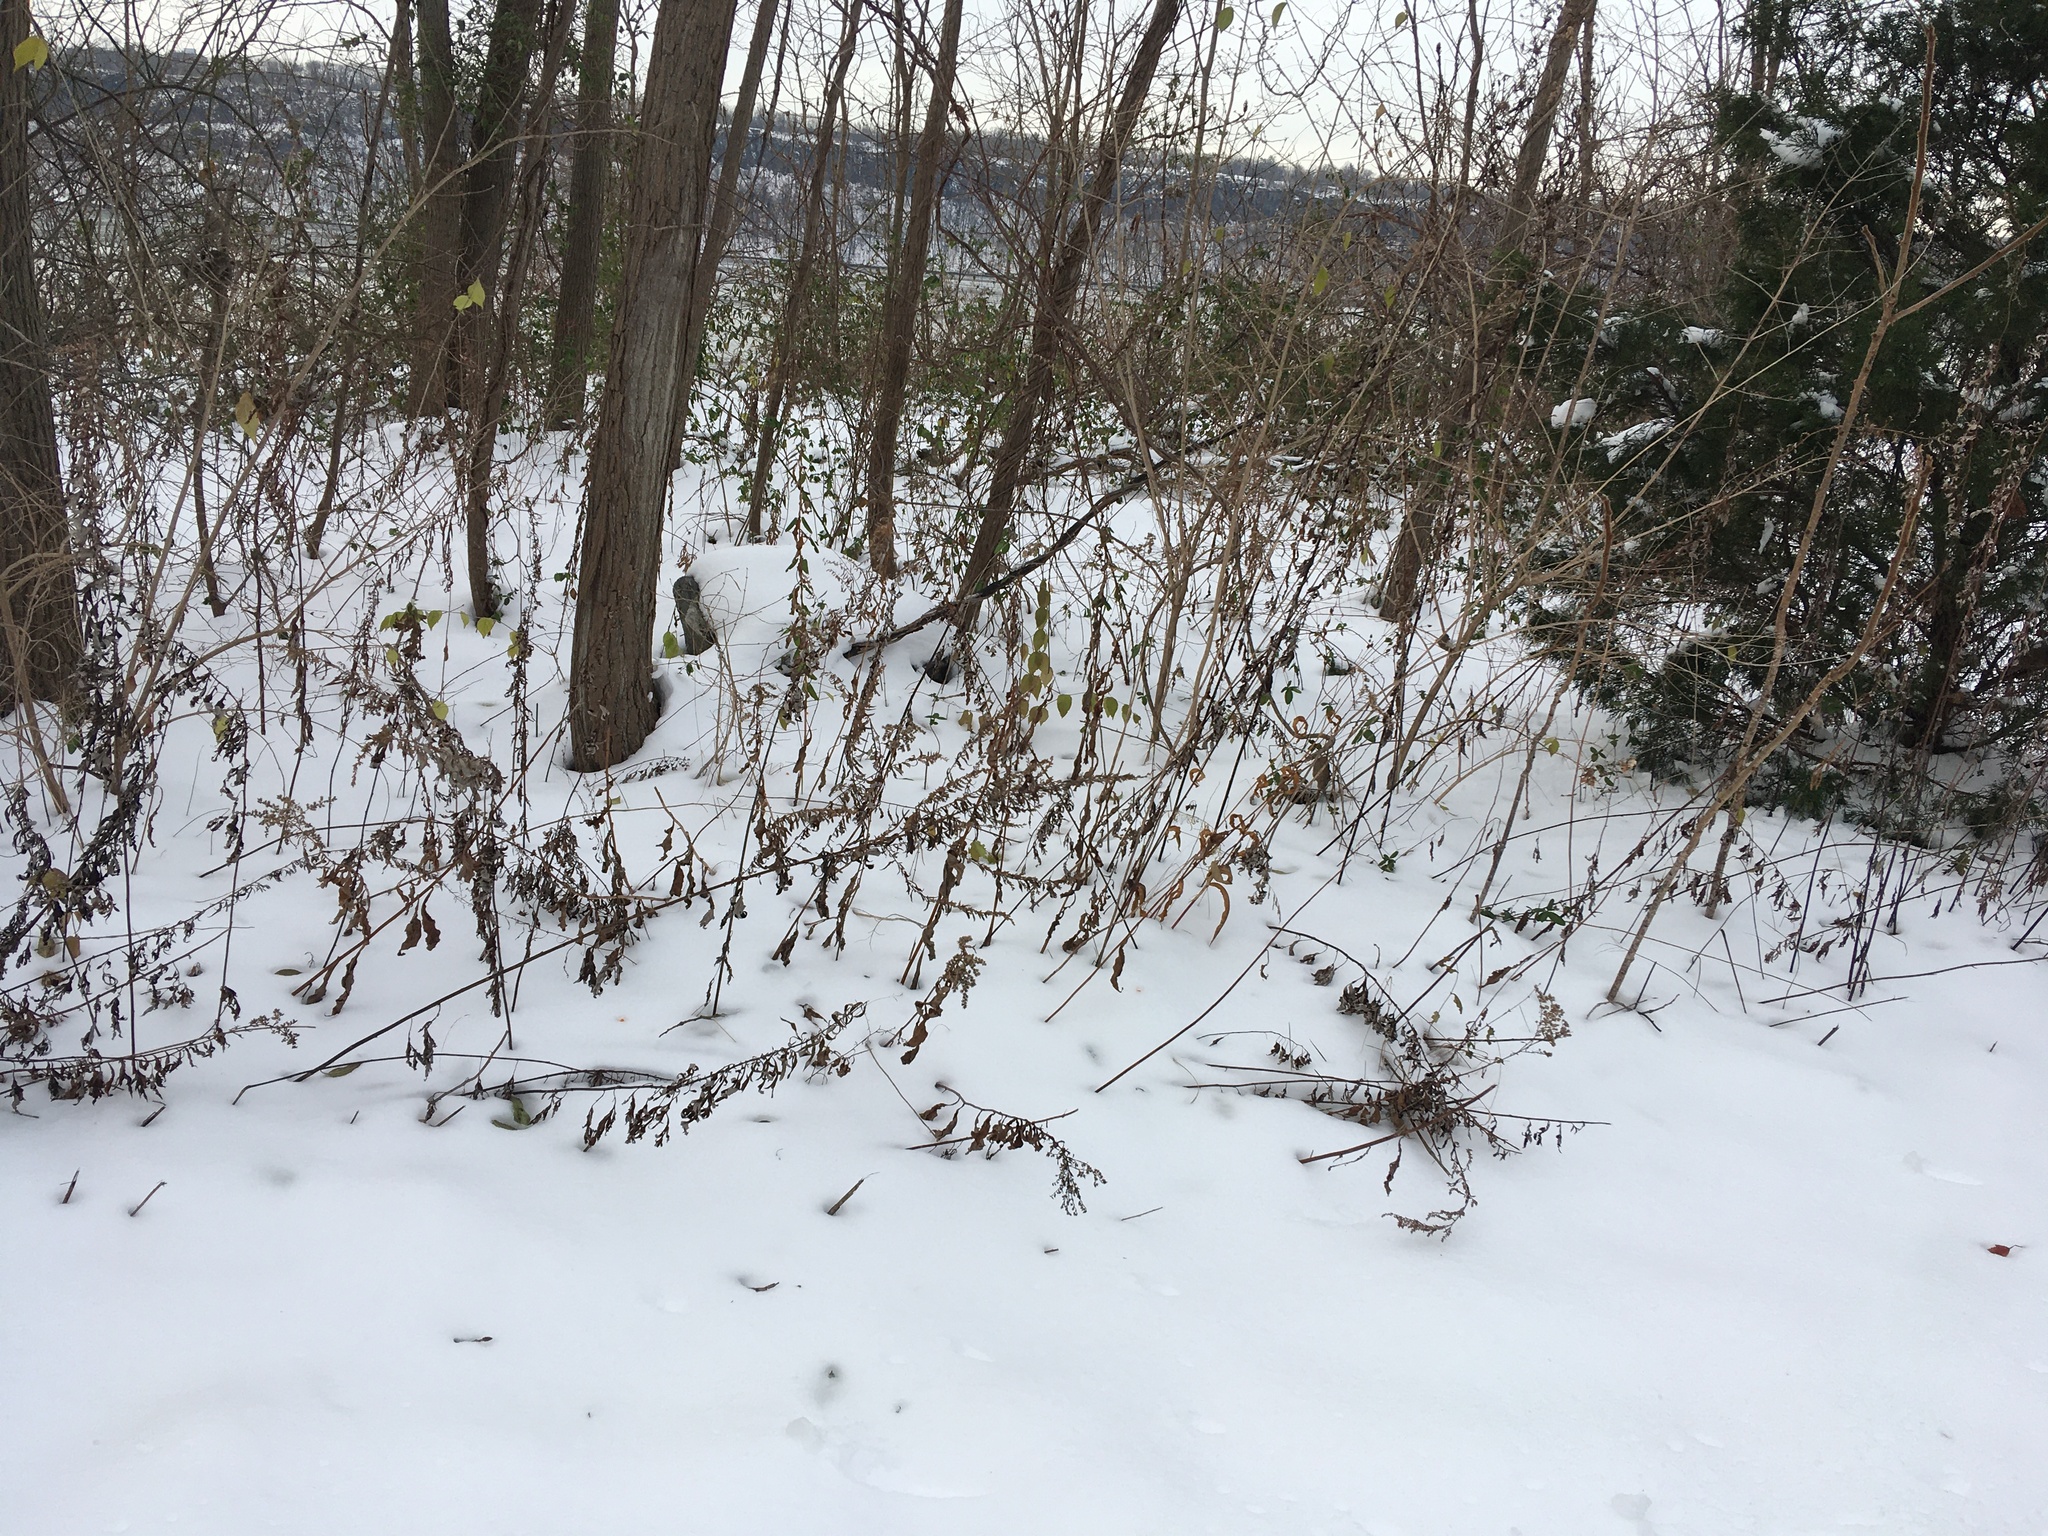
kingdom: Plantae
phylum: Tracheophyta
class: Magnoliopsida
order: Asterales
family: Asteraceae
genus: Artemisia
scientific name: Artemisia vulgaris
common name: Mugwort
